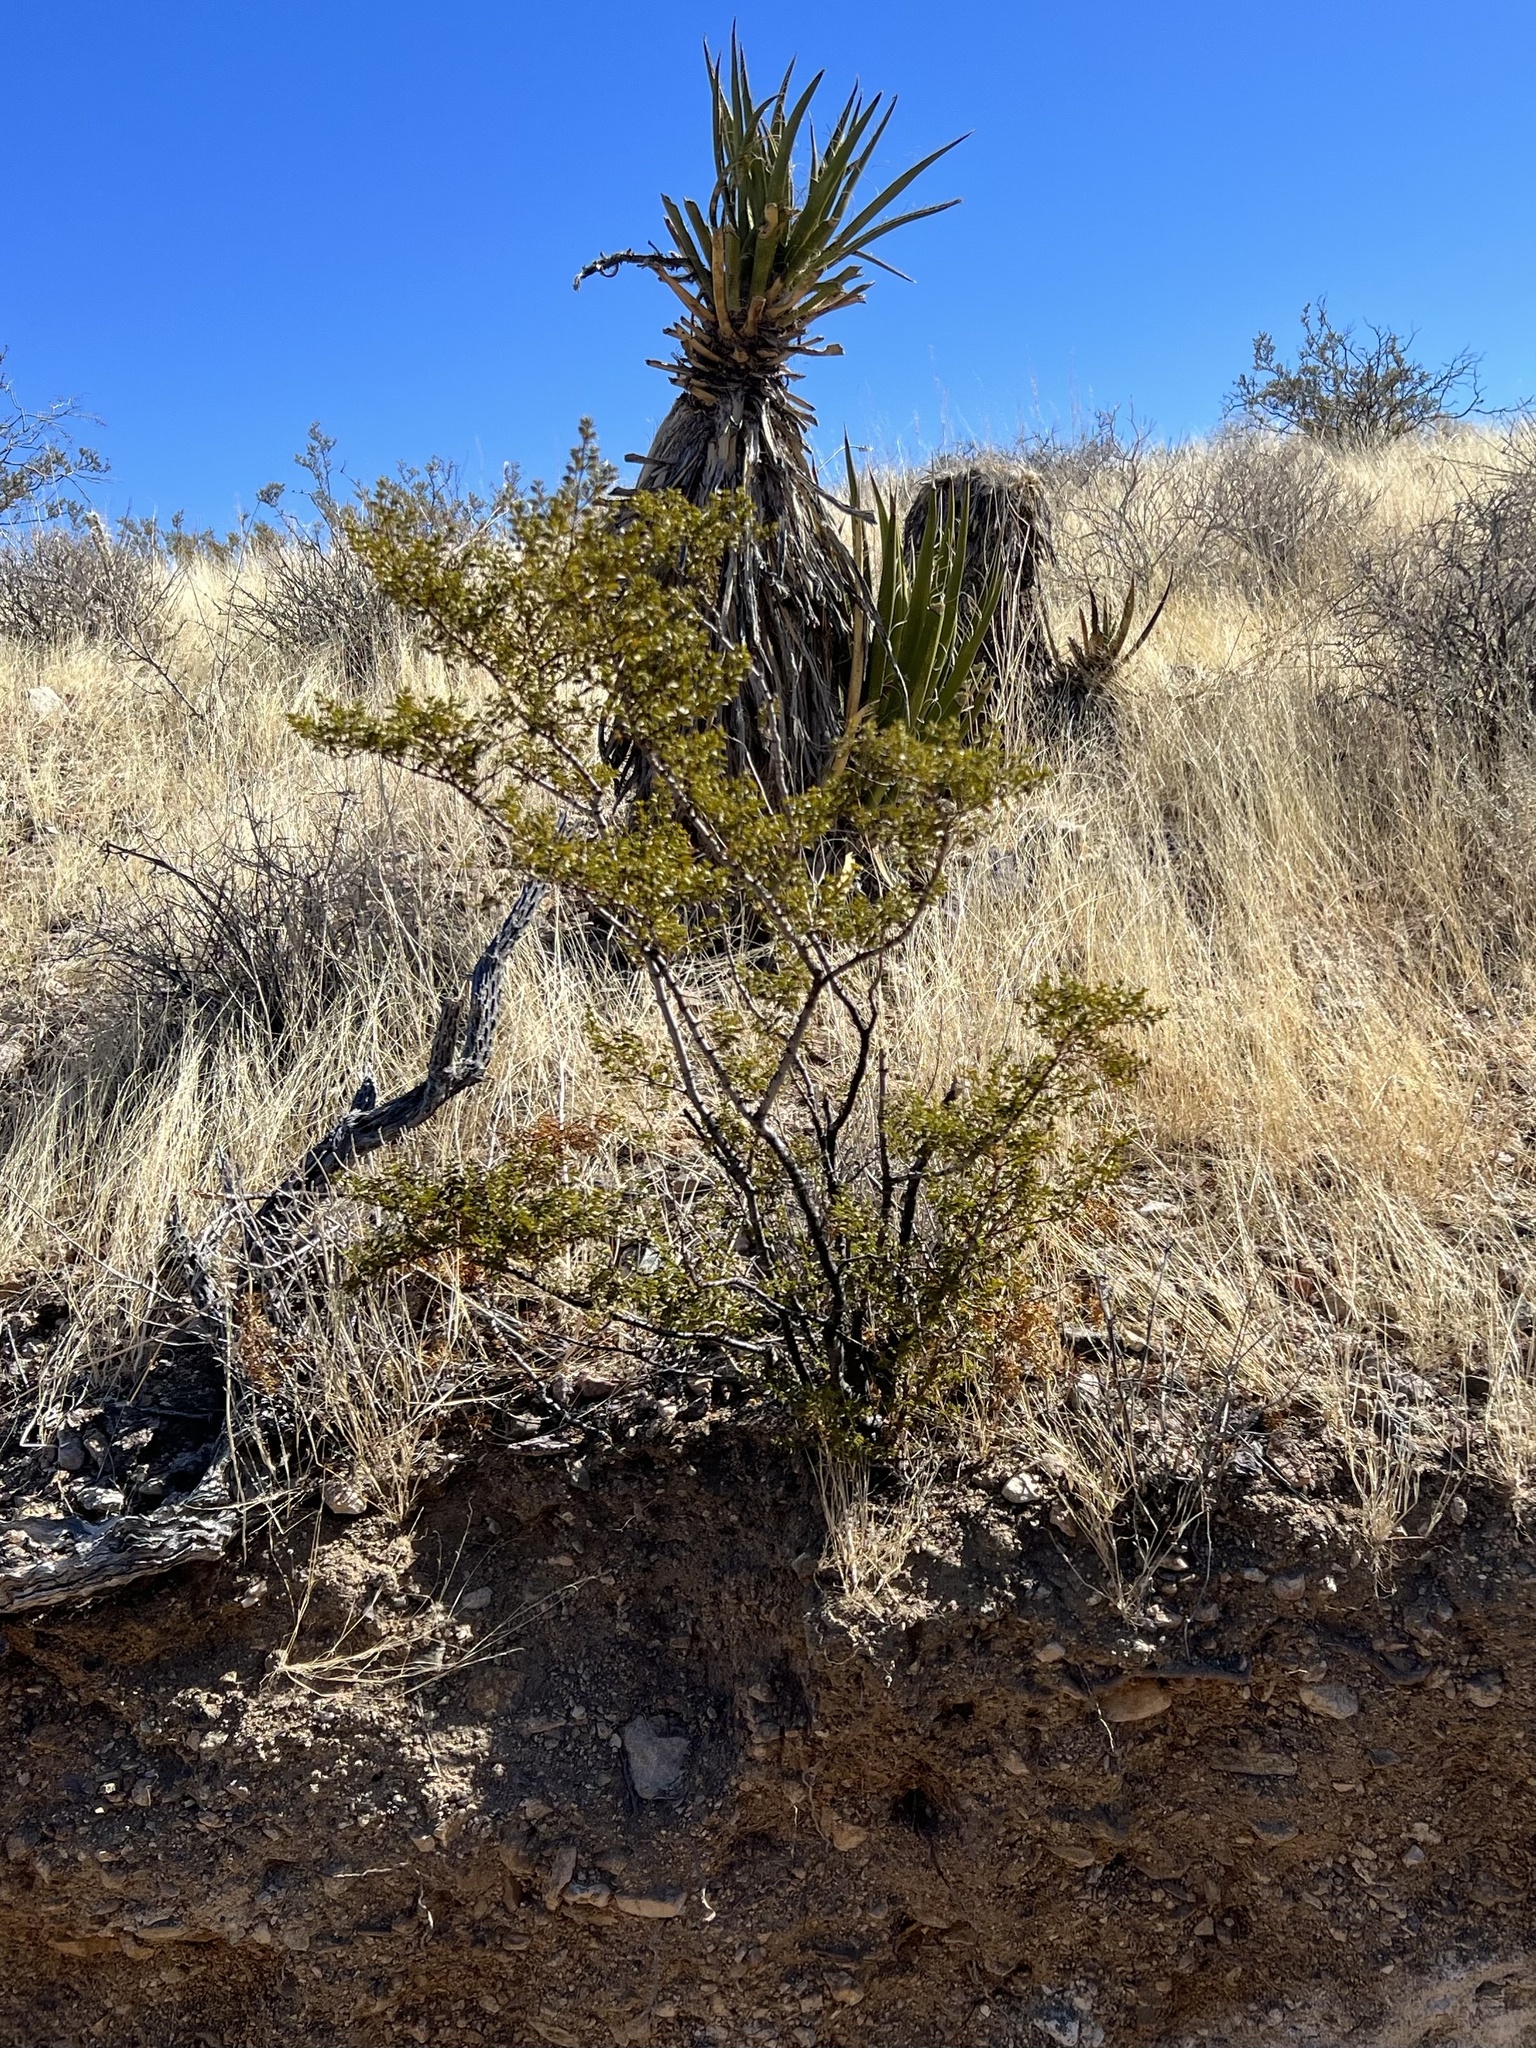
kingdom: Plantae
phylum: Tracheophyta
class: Magnoliopsida
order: Zygophyllales
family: Zygophyllaceae
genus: Larrea
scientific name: Larrea tridentata
